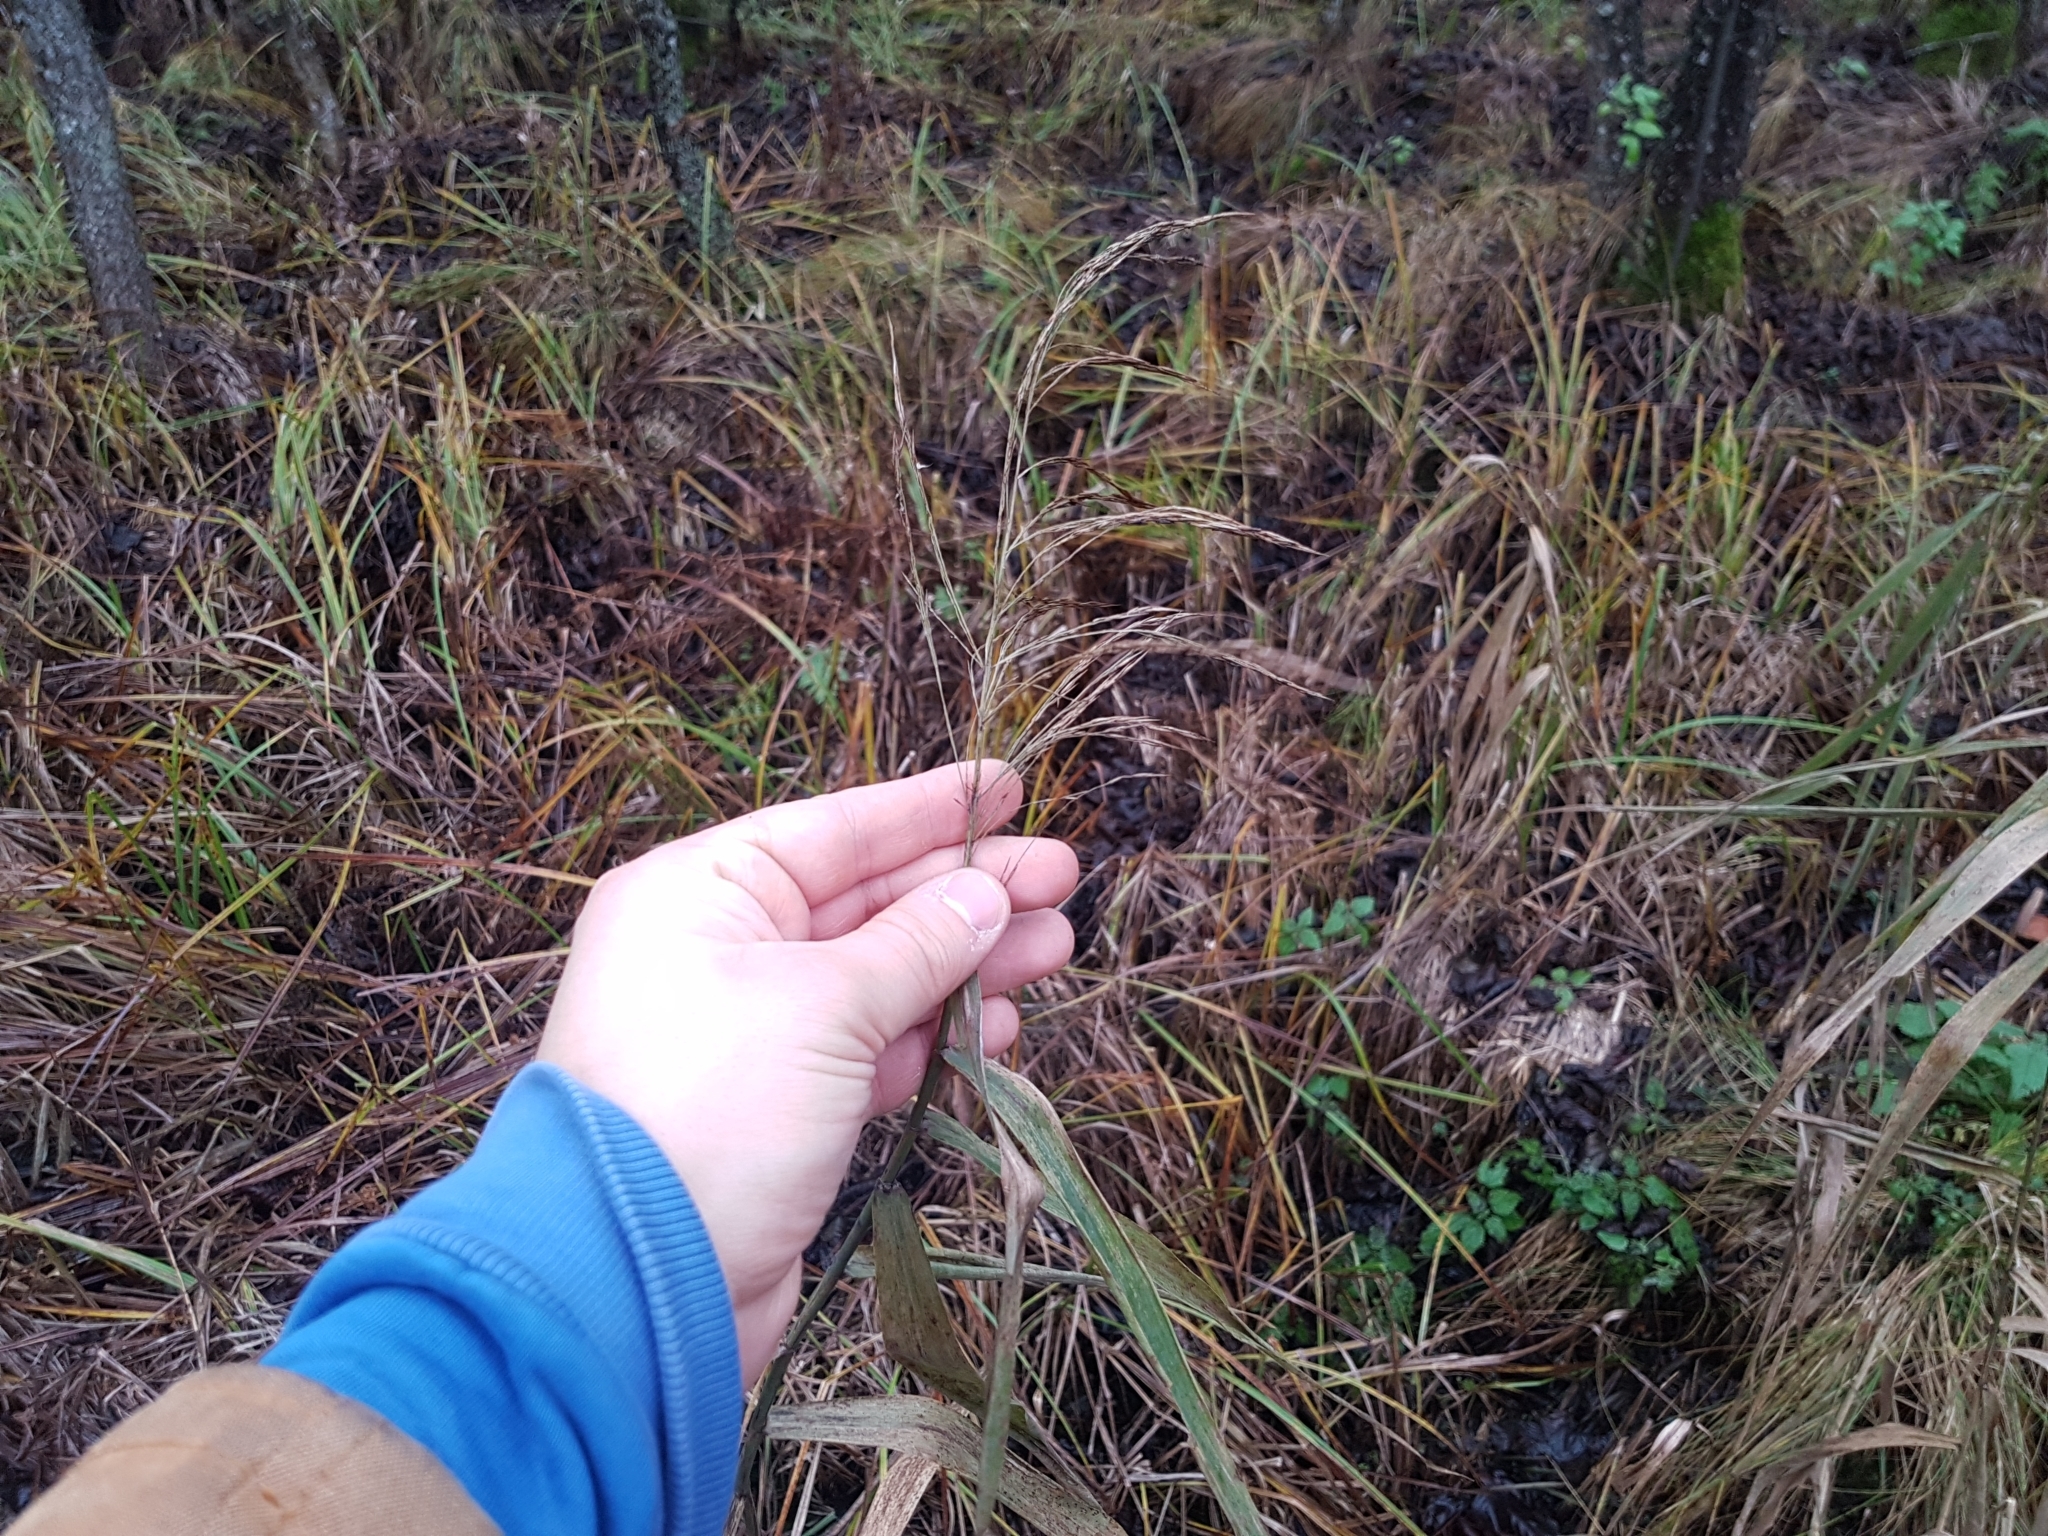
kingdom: Plantae
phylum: Tracheophyta
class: Liliopsida
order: Poales
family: Poaceae
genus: Phragmites
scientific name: Phragmites australis
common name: Common reed
